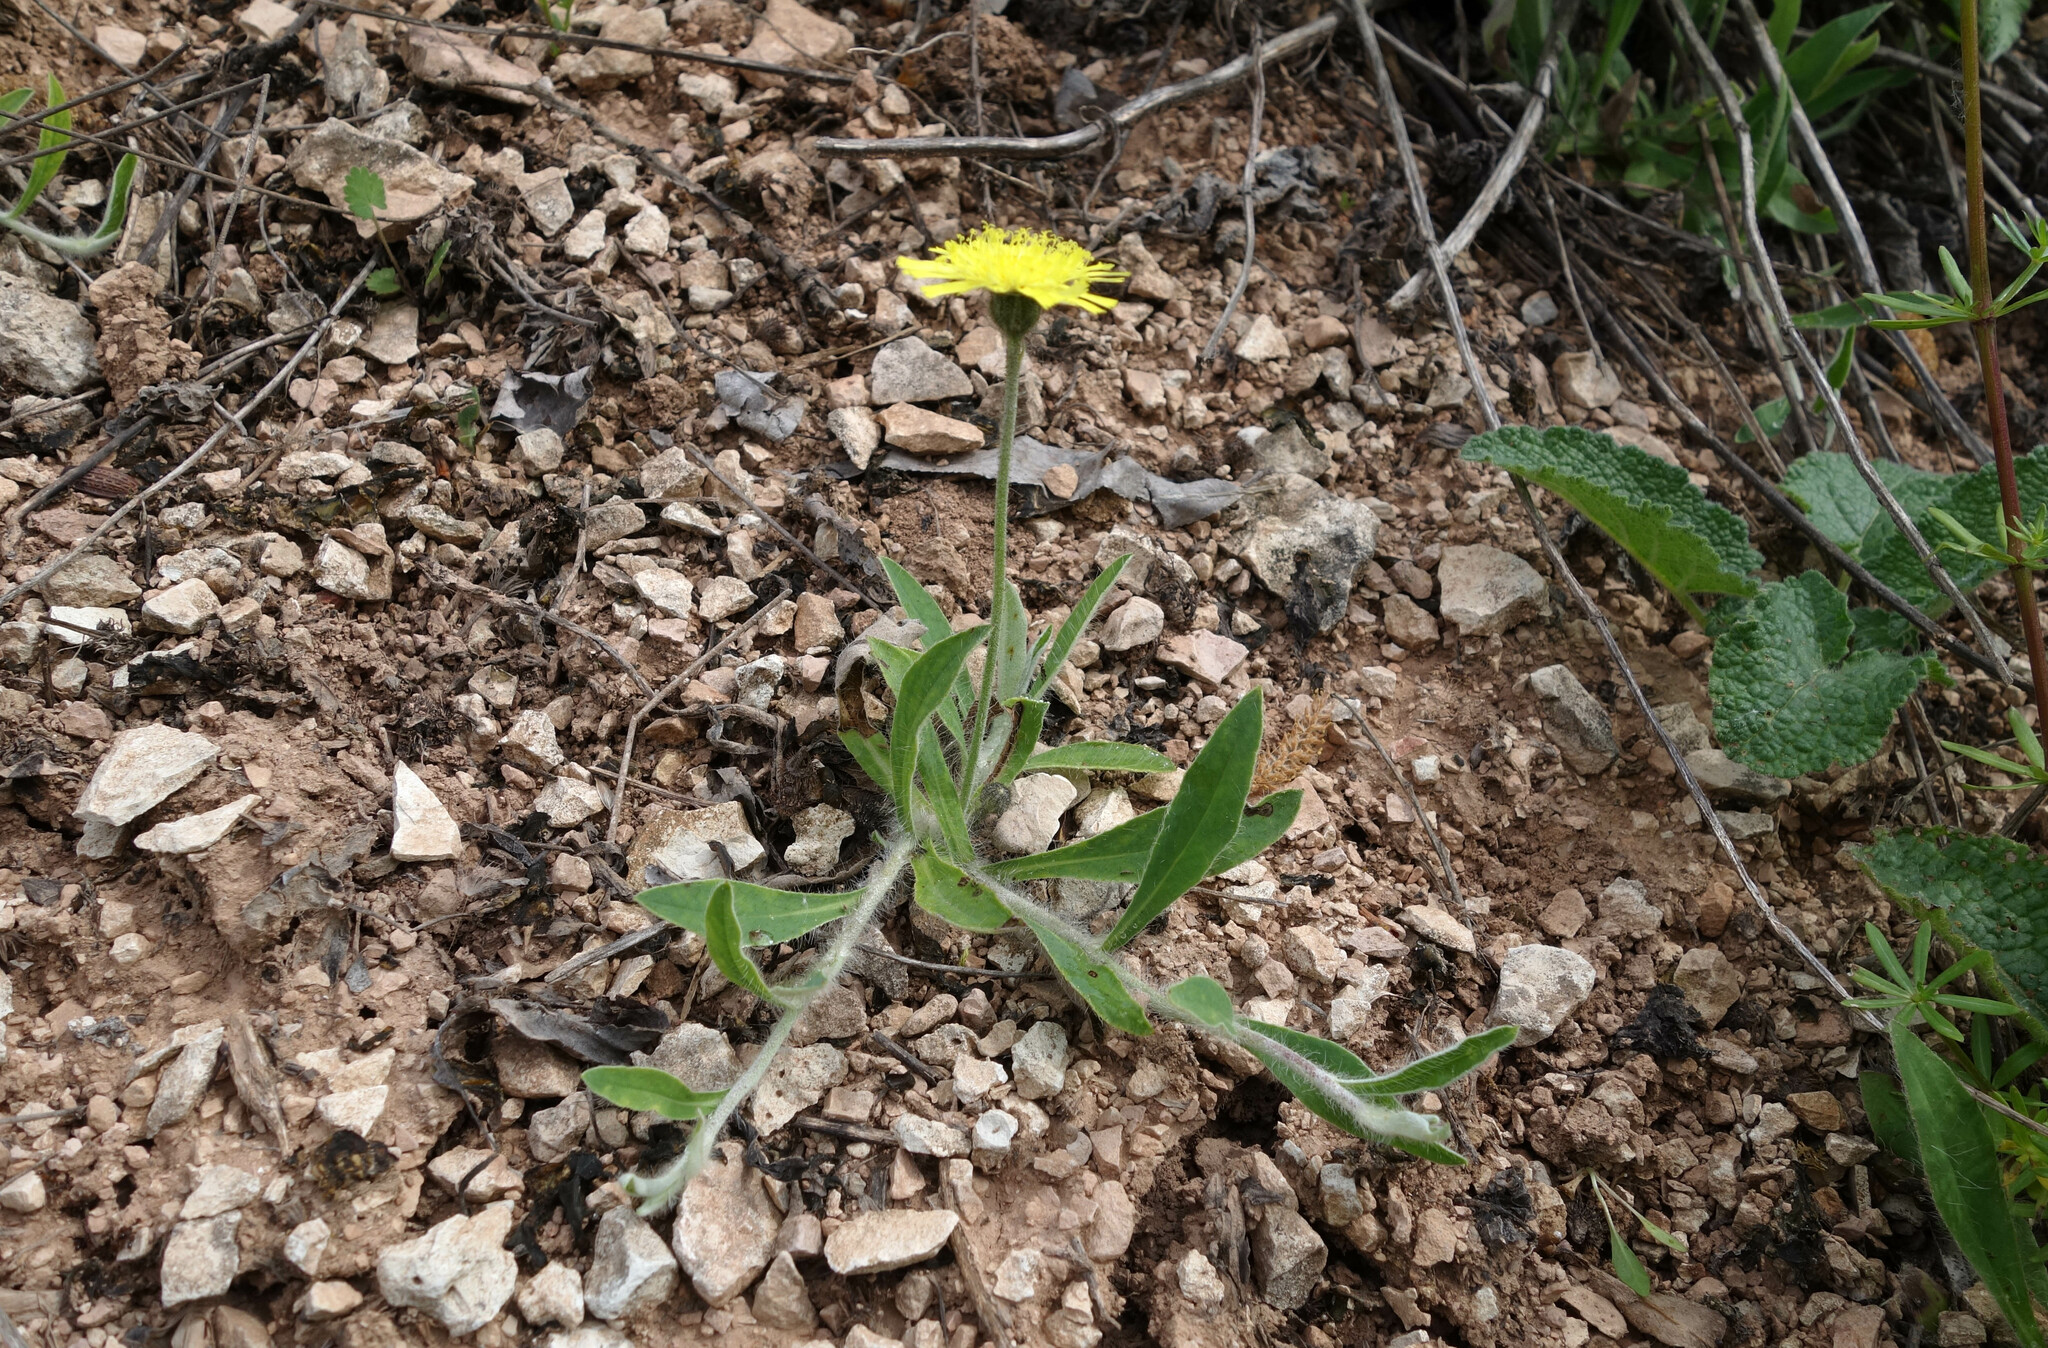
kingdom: Plantae
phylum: Tracheophyta
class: Magnoliopsida
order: Asterales
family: Asteraceae
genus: Pilosella
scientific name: Pilosella officinarum
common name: Mouse-ear hawkweed
